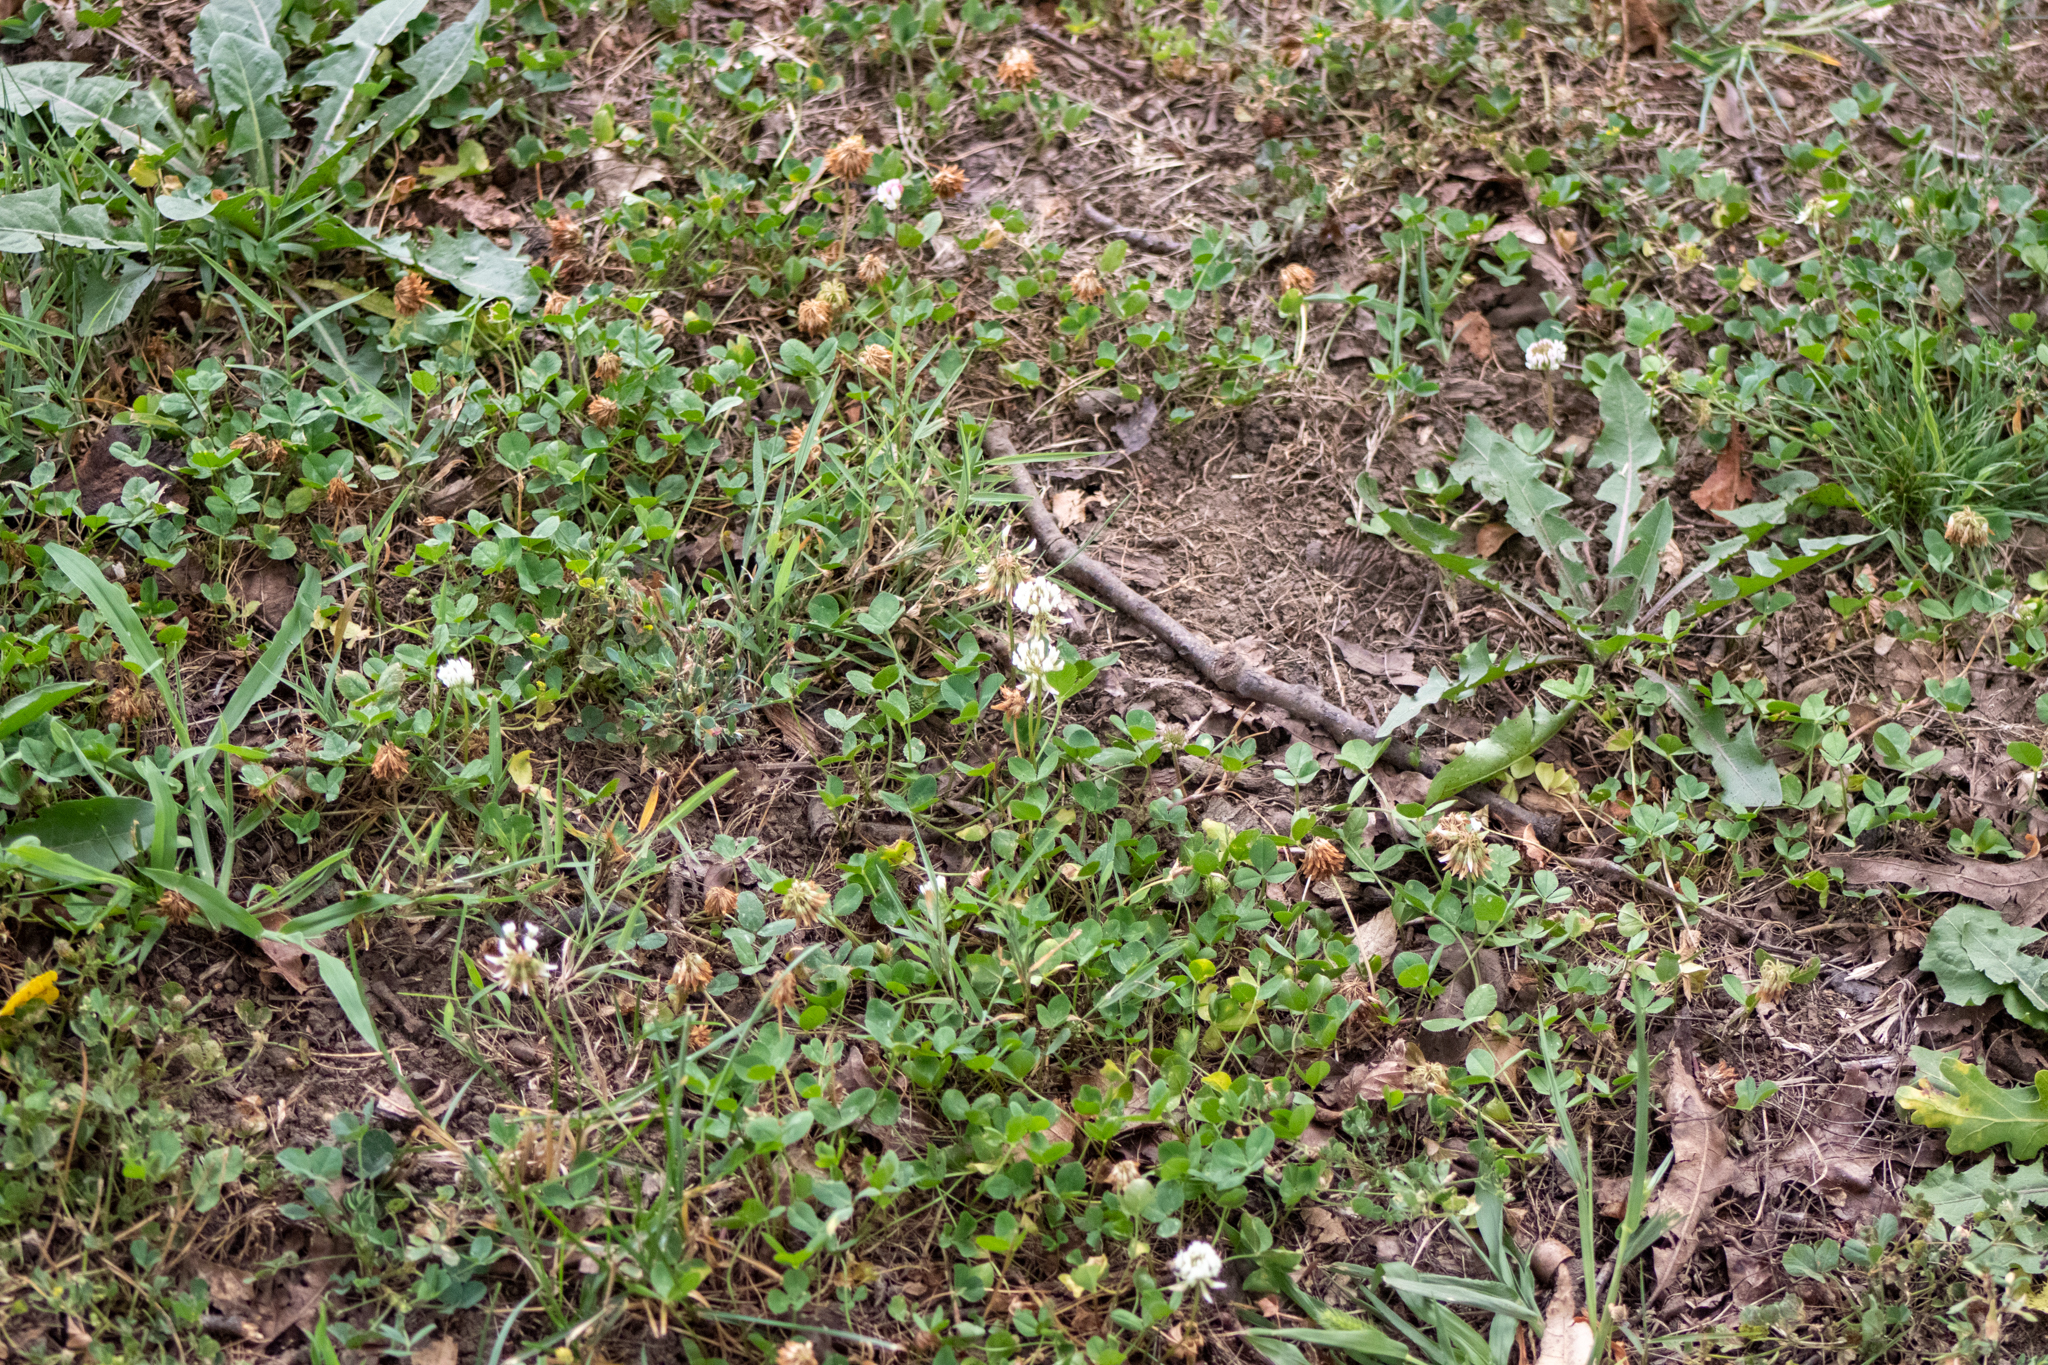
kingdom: Plantae
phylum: Tracheophyta
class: Magnoliopsida
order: Fabales
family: Fabaceae
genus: Trifolium
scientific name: Trifolium repens
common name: White clover
